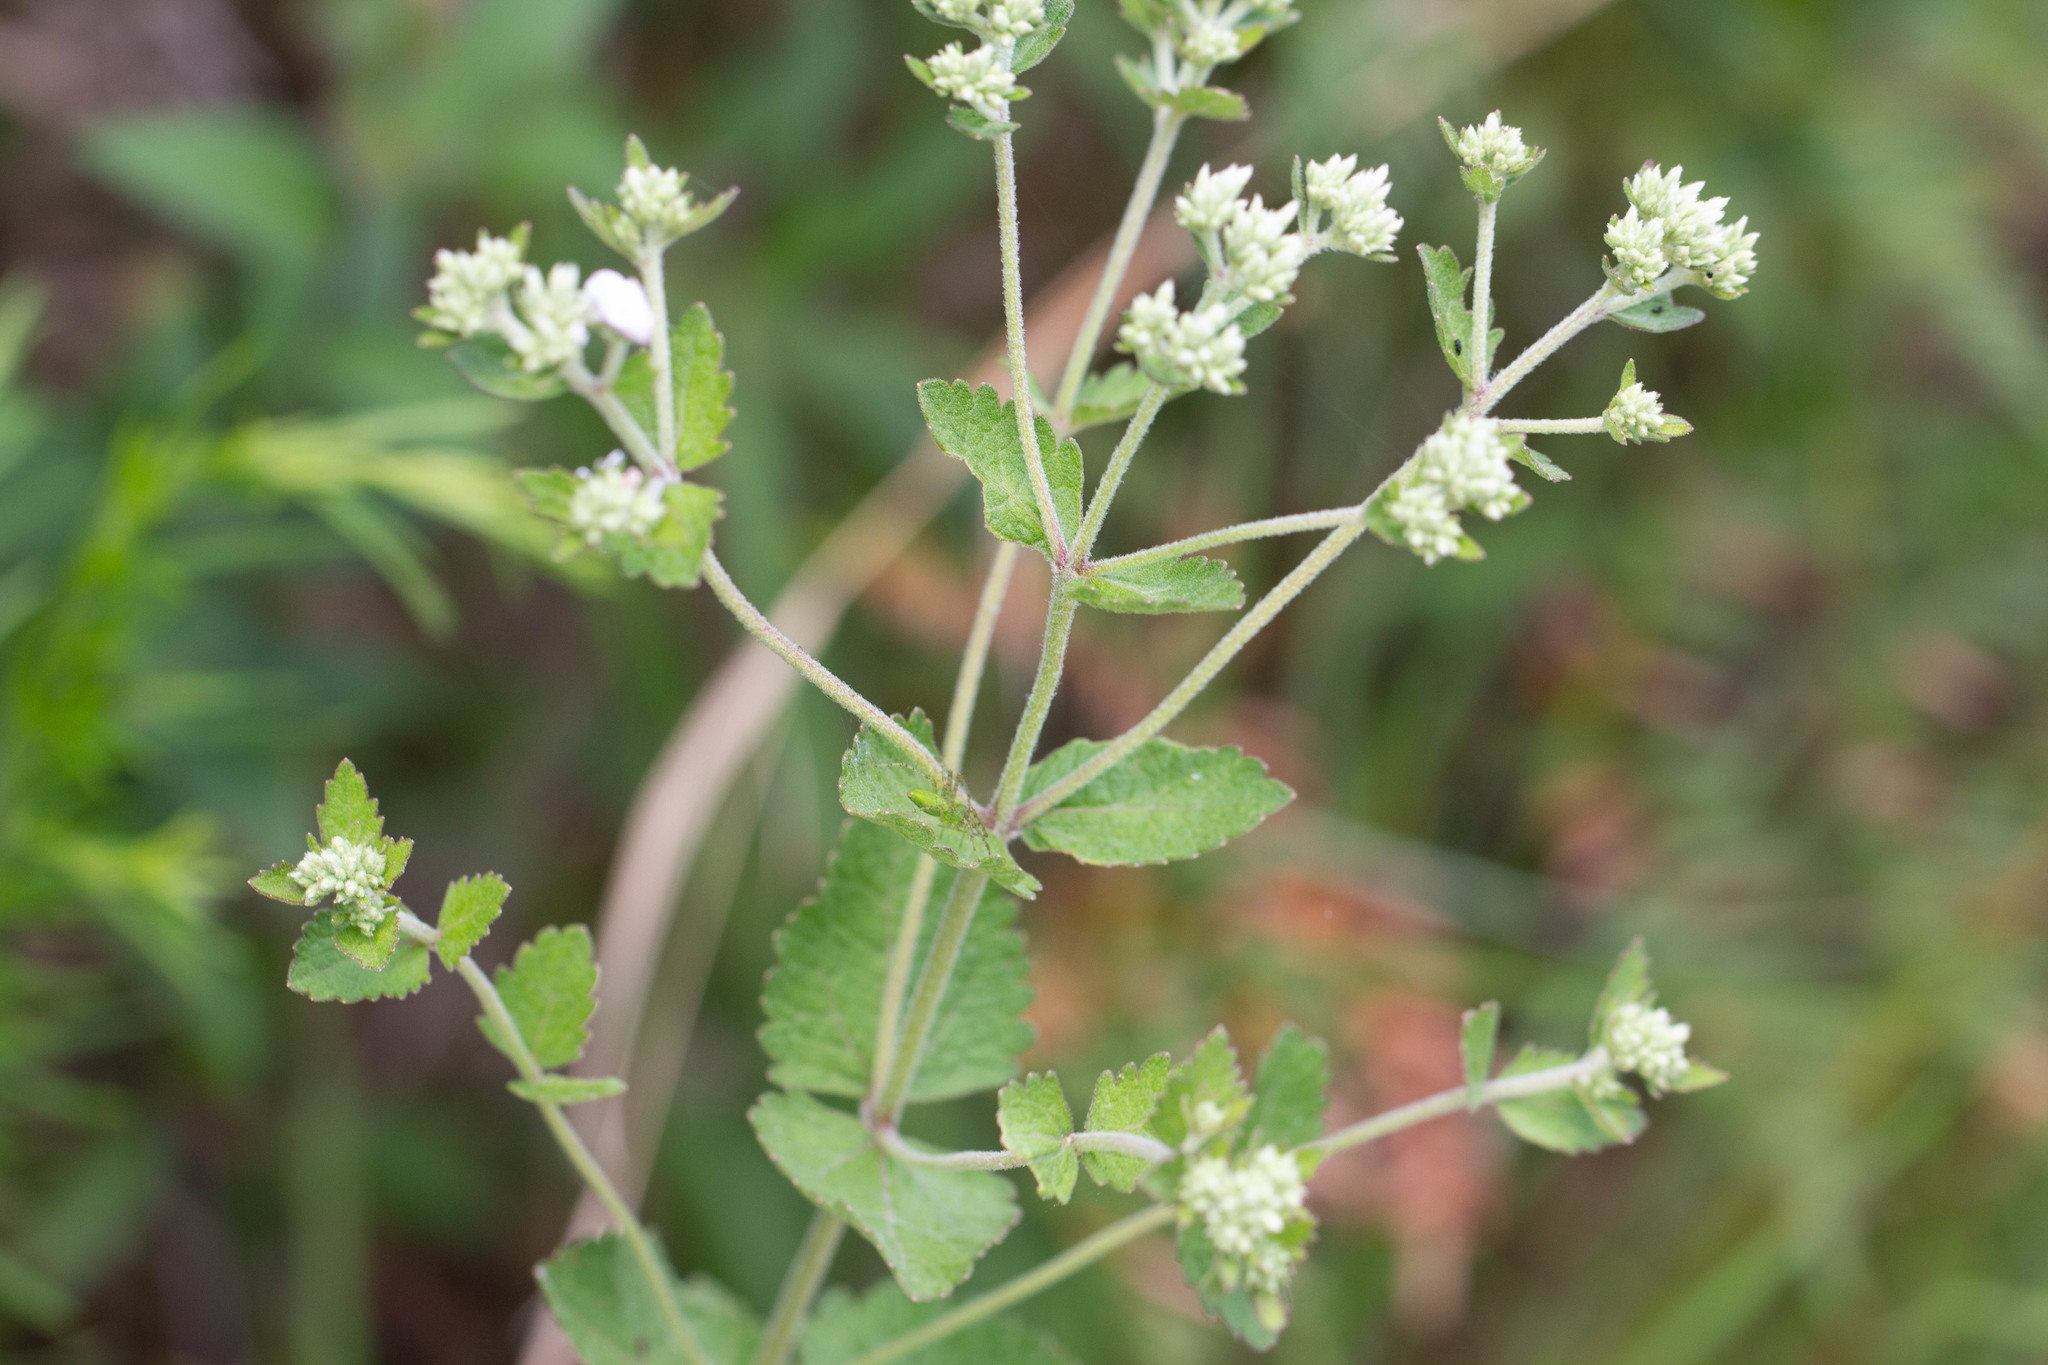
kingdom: Plantae
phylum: Tracheophyta
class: Magnoliopsida
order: Asterales
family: Asteraceae
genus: Eupatorium
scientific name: Eupatorium rotundifolium
